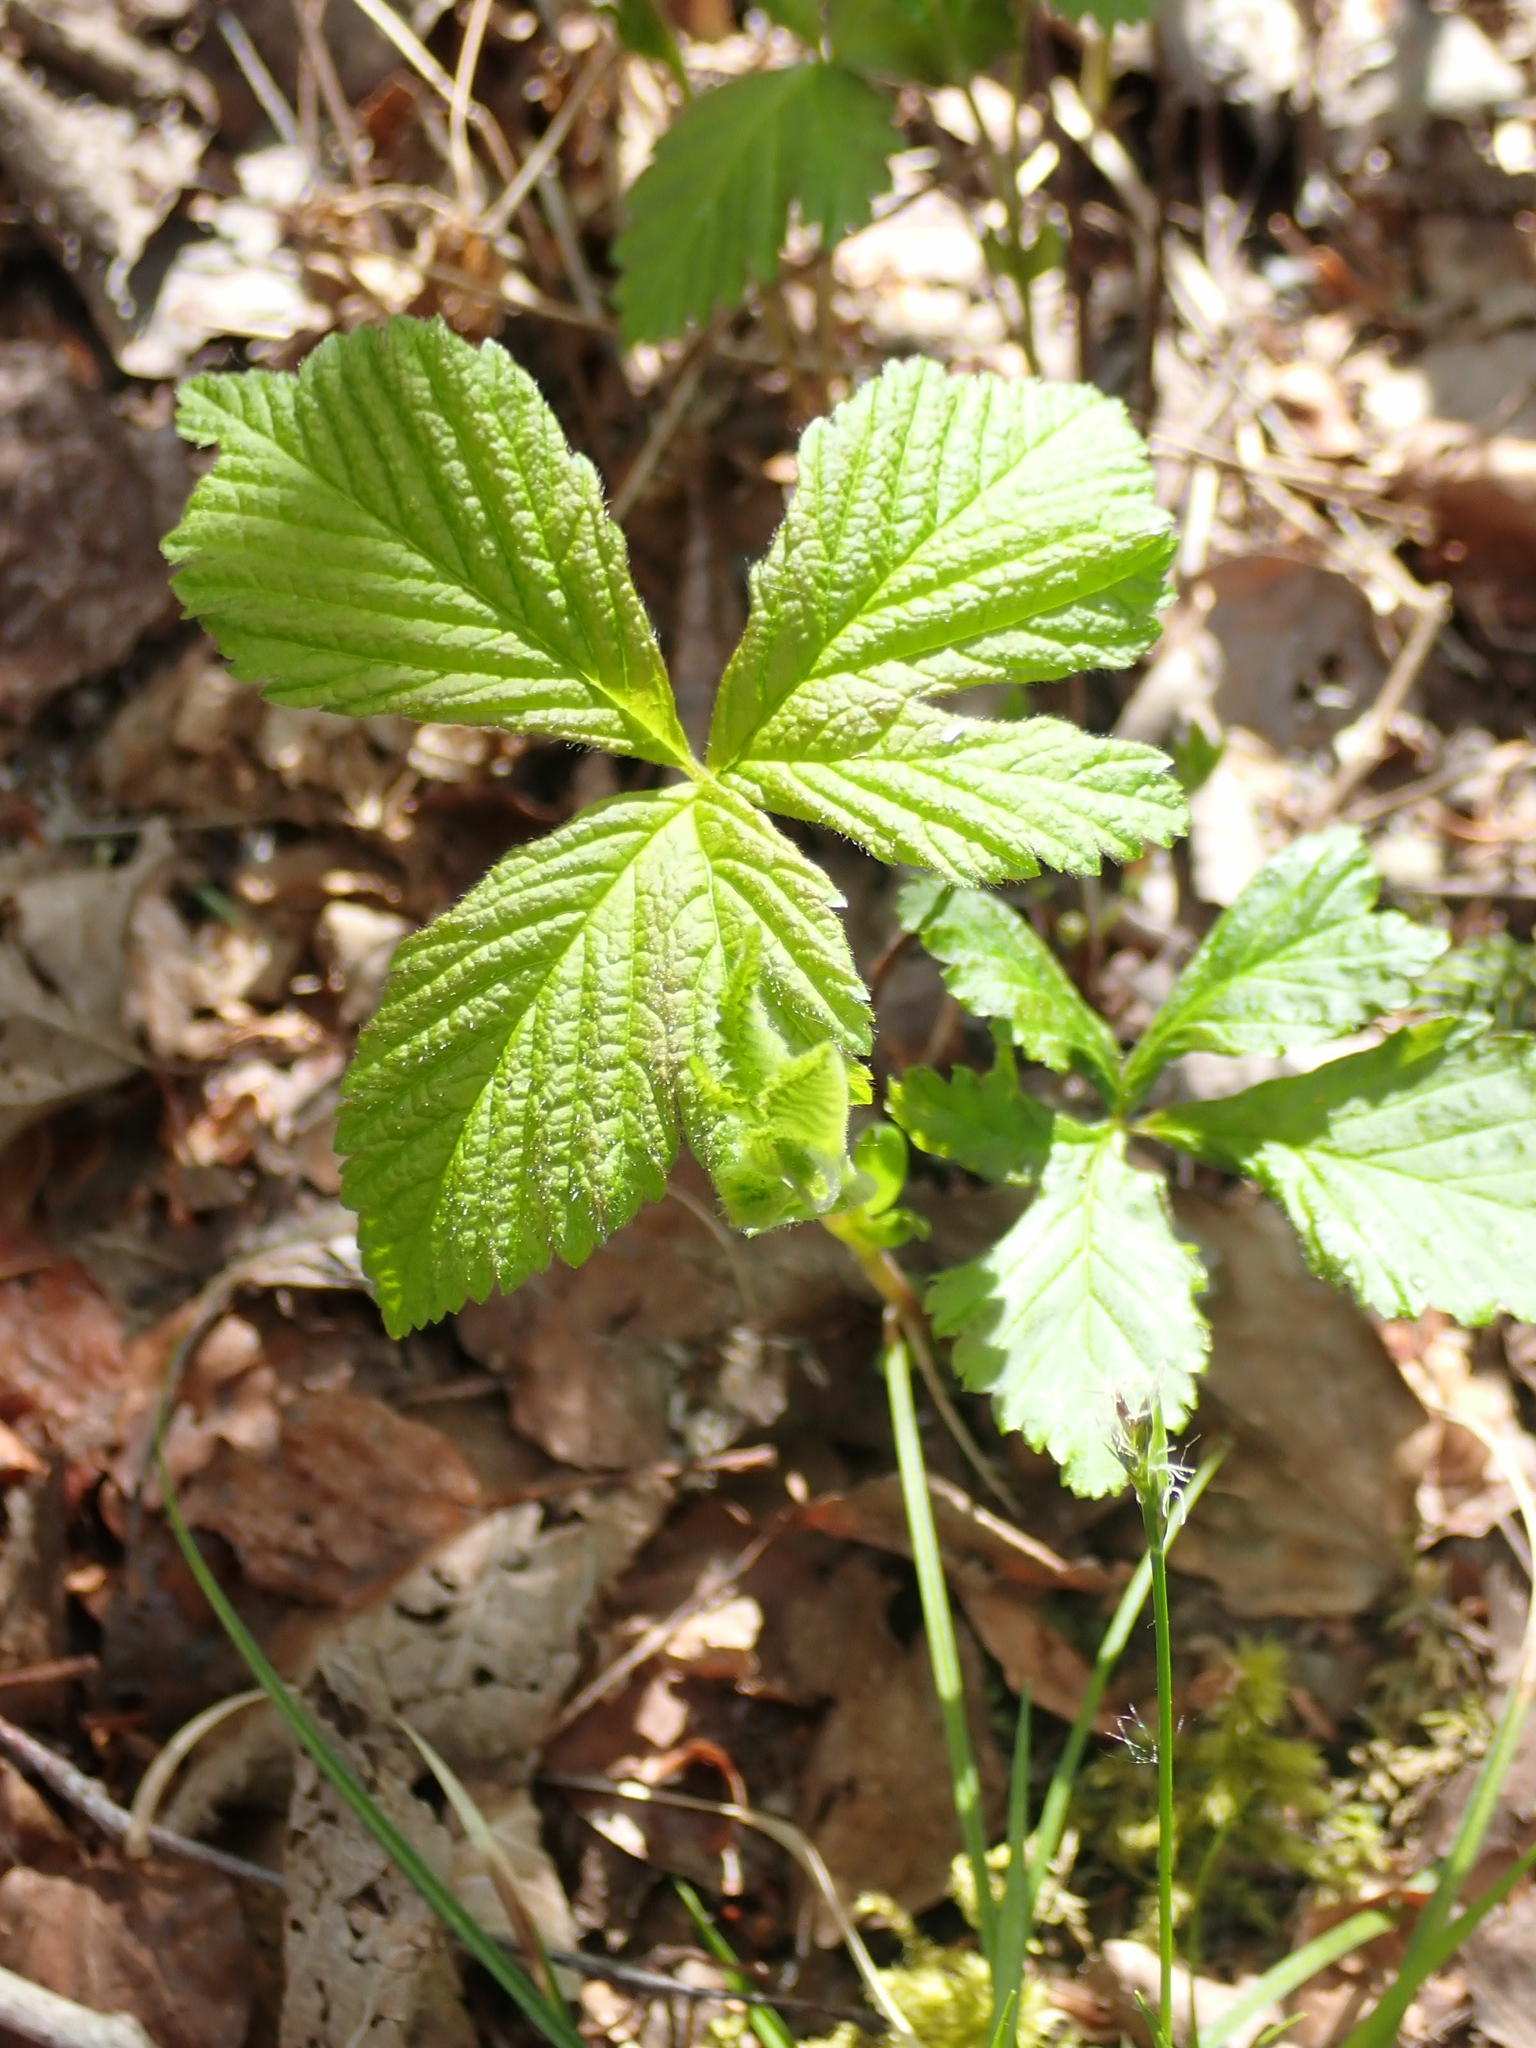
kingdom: Plantae
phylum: Tracheophyta
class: Magnoliopsida
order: Rosales
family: Rosaceae
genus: Rubus
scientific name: Rubus pubescens
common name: Dwarf raspberry
